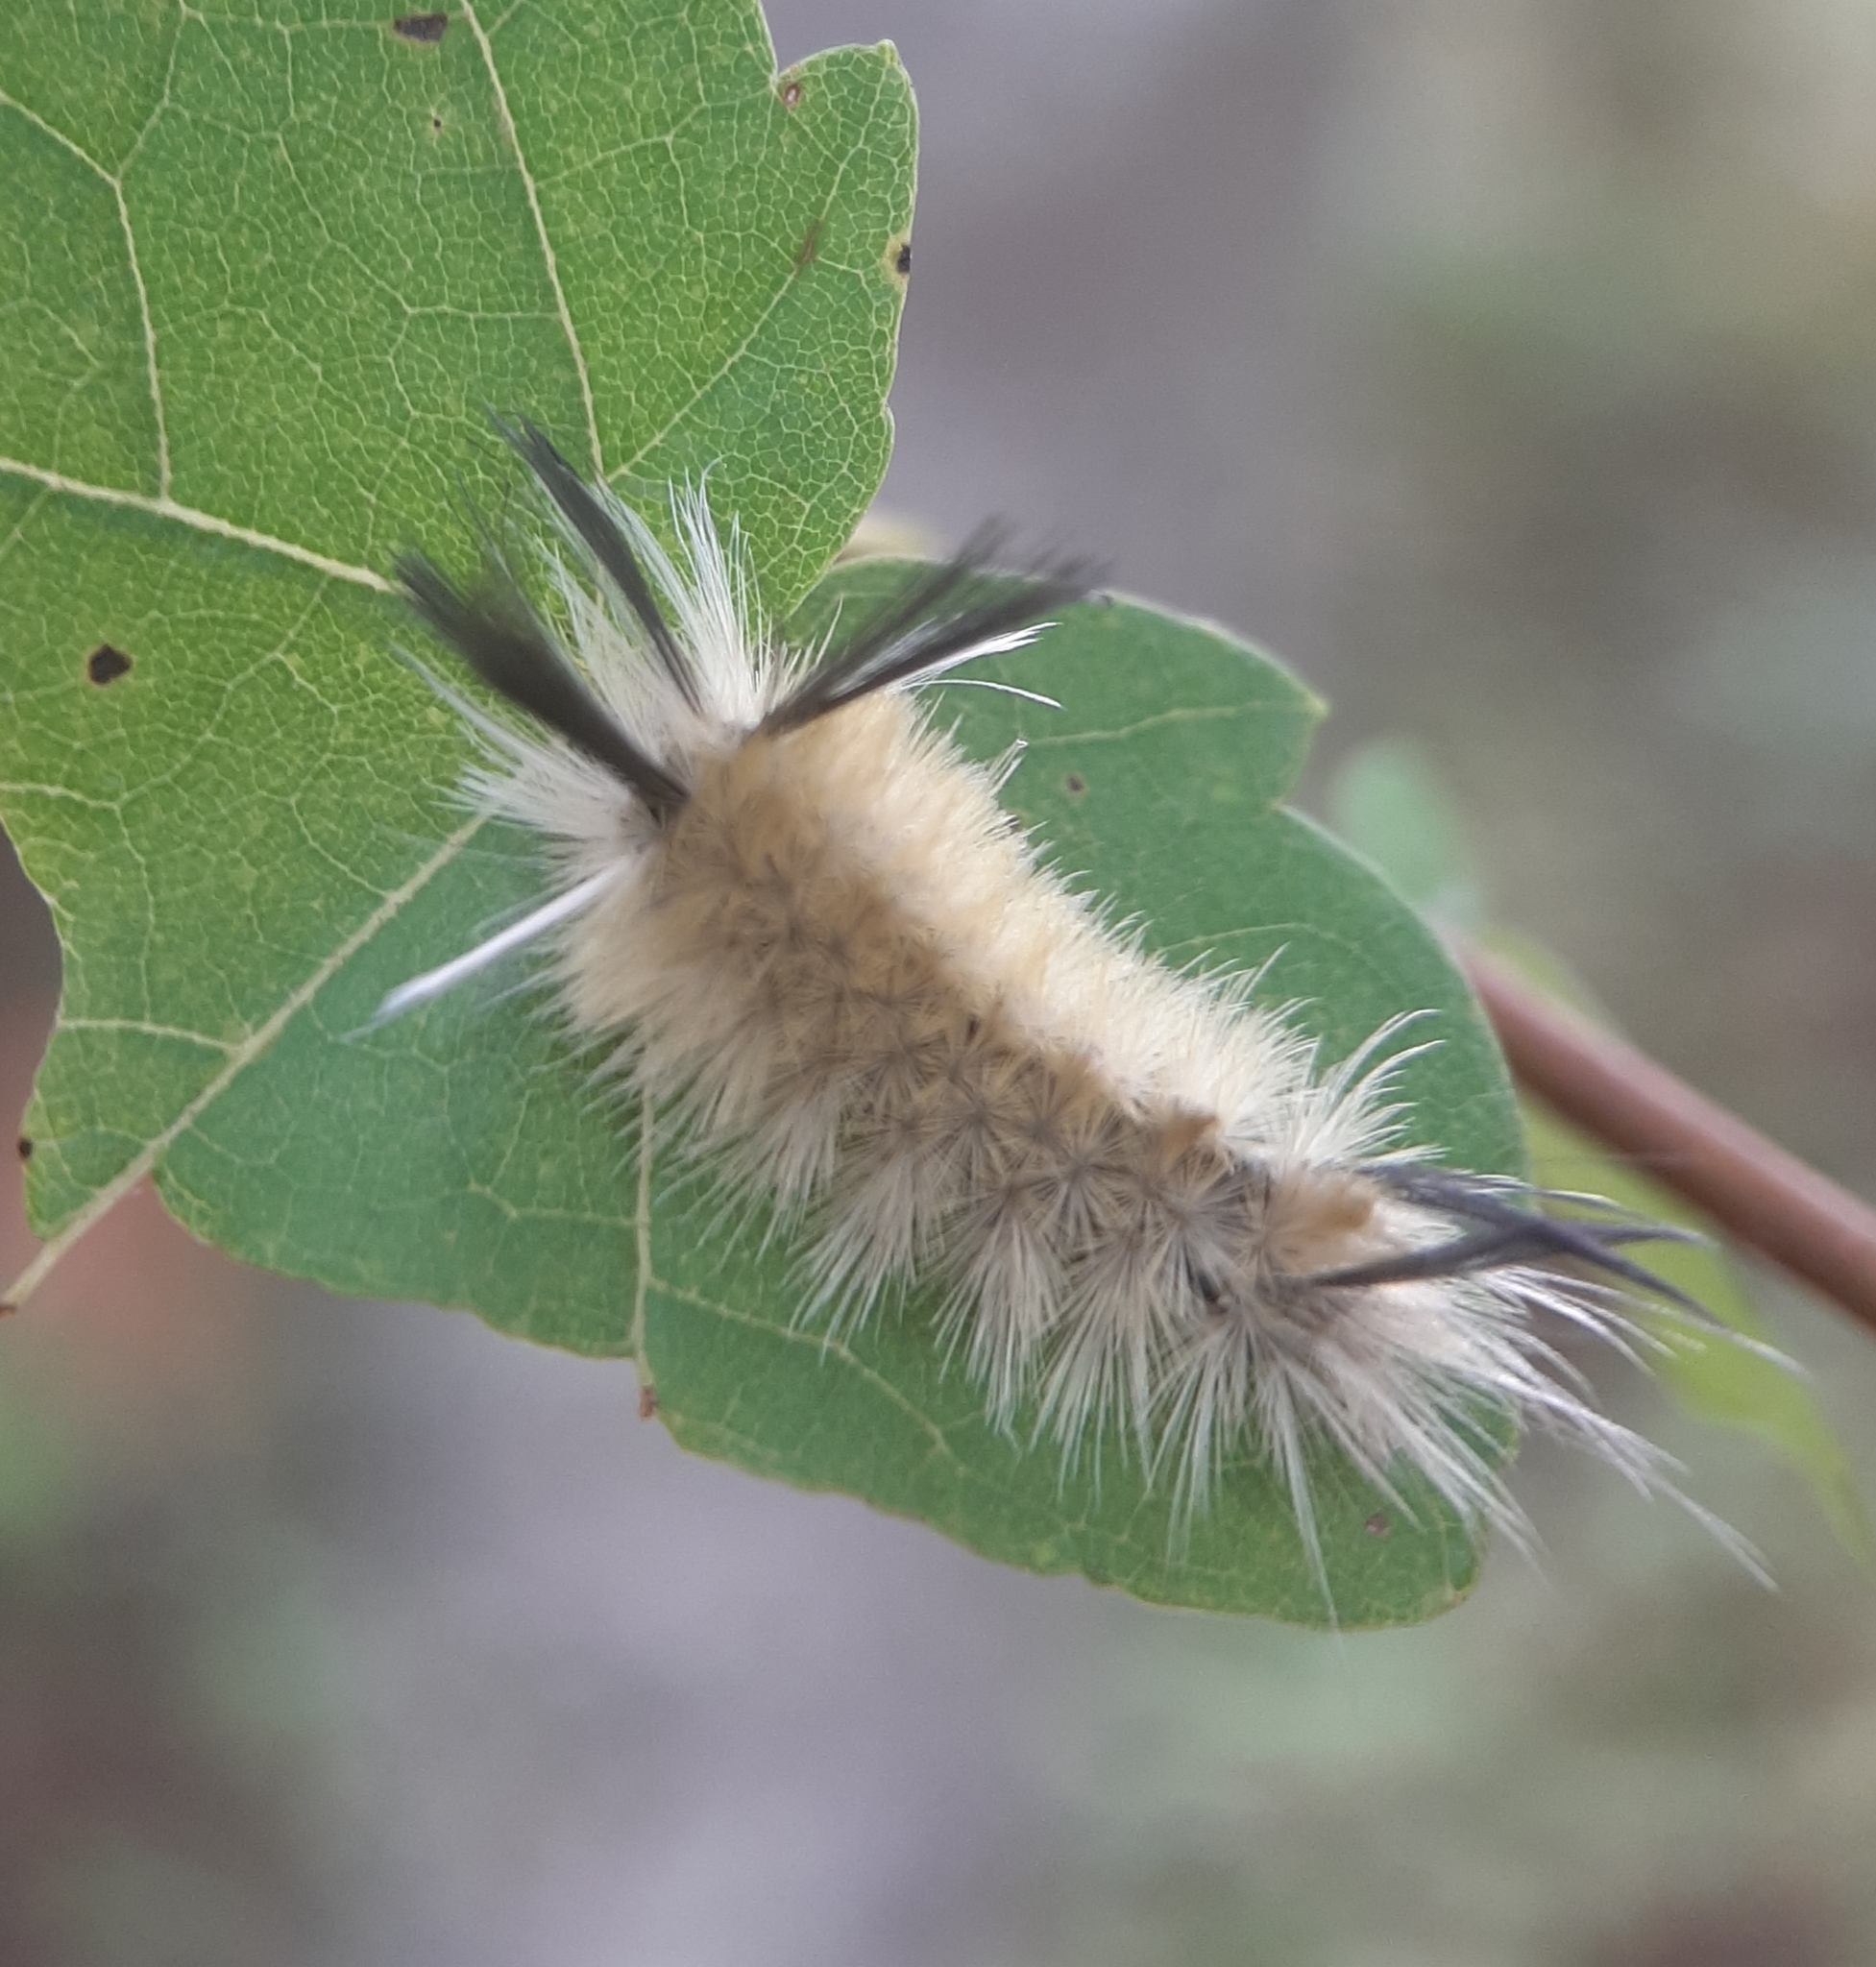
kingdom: Animalia
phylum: Arthropoda
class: Insecta
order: Lepidoptera
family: Erebidae
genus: Halysidota
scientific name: Halysidota tessellaris
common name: Banded tussock moth
